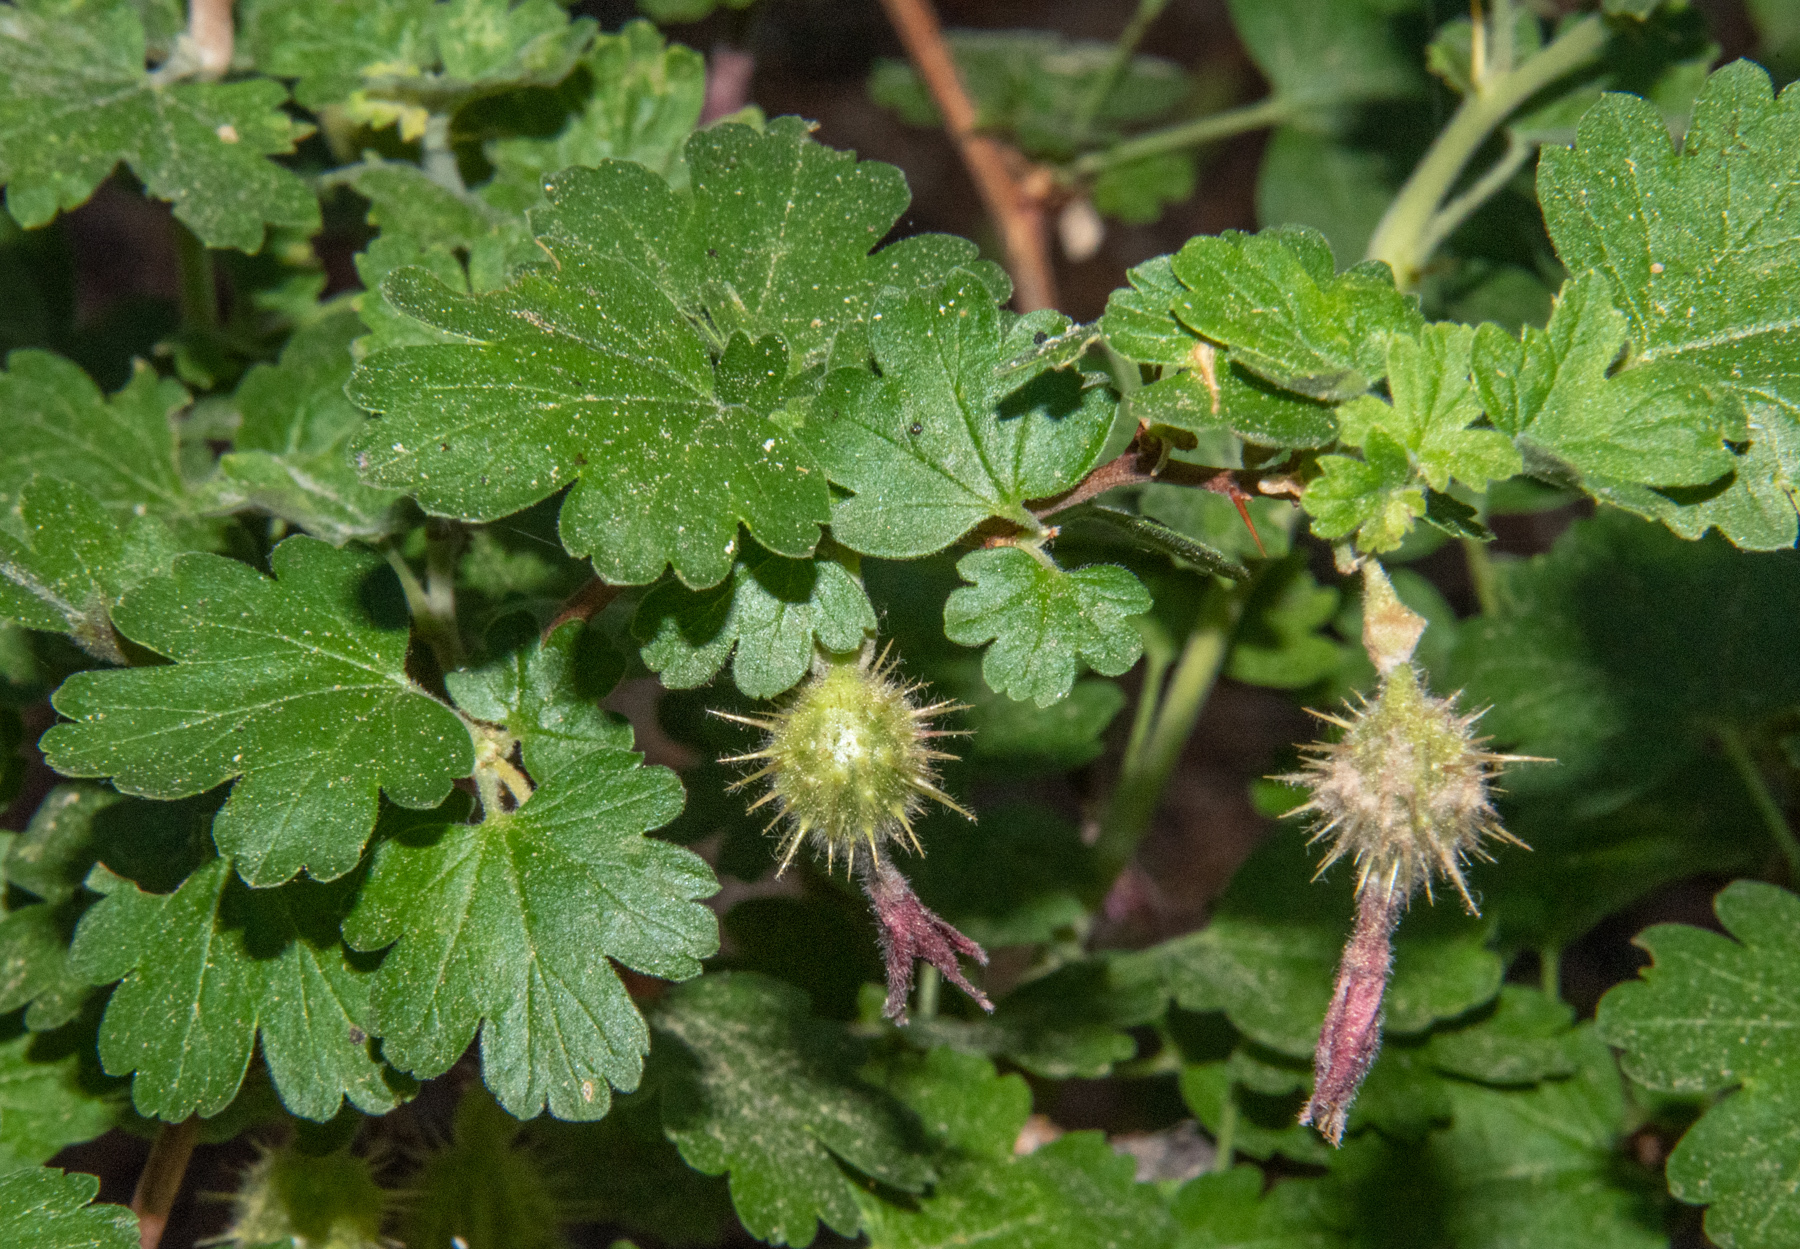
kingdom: Plantae
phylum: Tracheophyta
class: Magnoliopsida
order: Saxifragales
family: Grossulariaceae
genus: Ribes
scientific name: Ribes roezlii
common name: Sierra gooseberry
